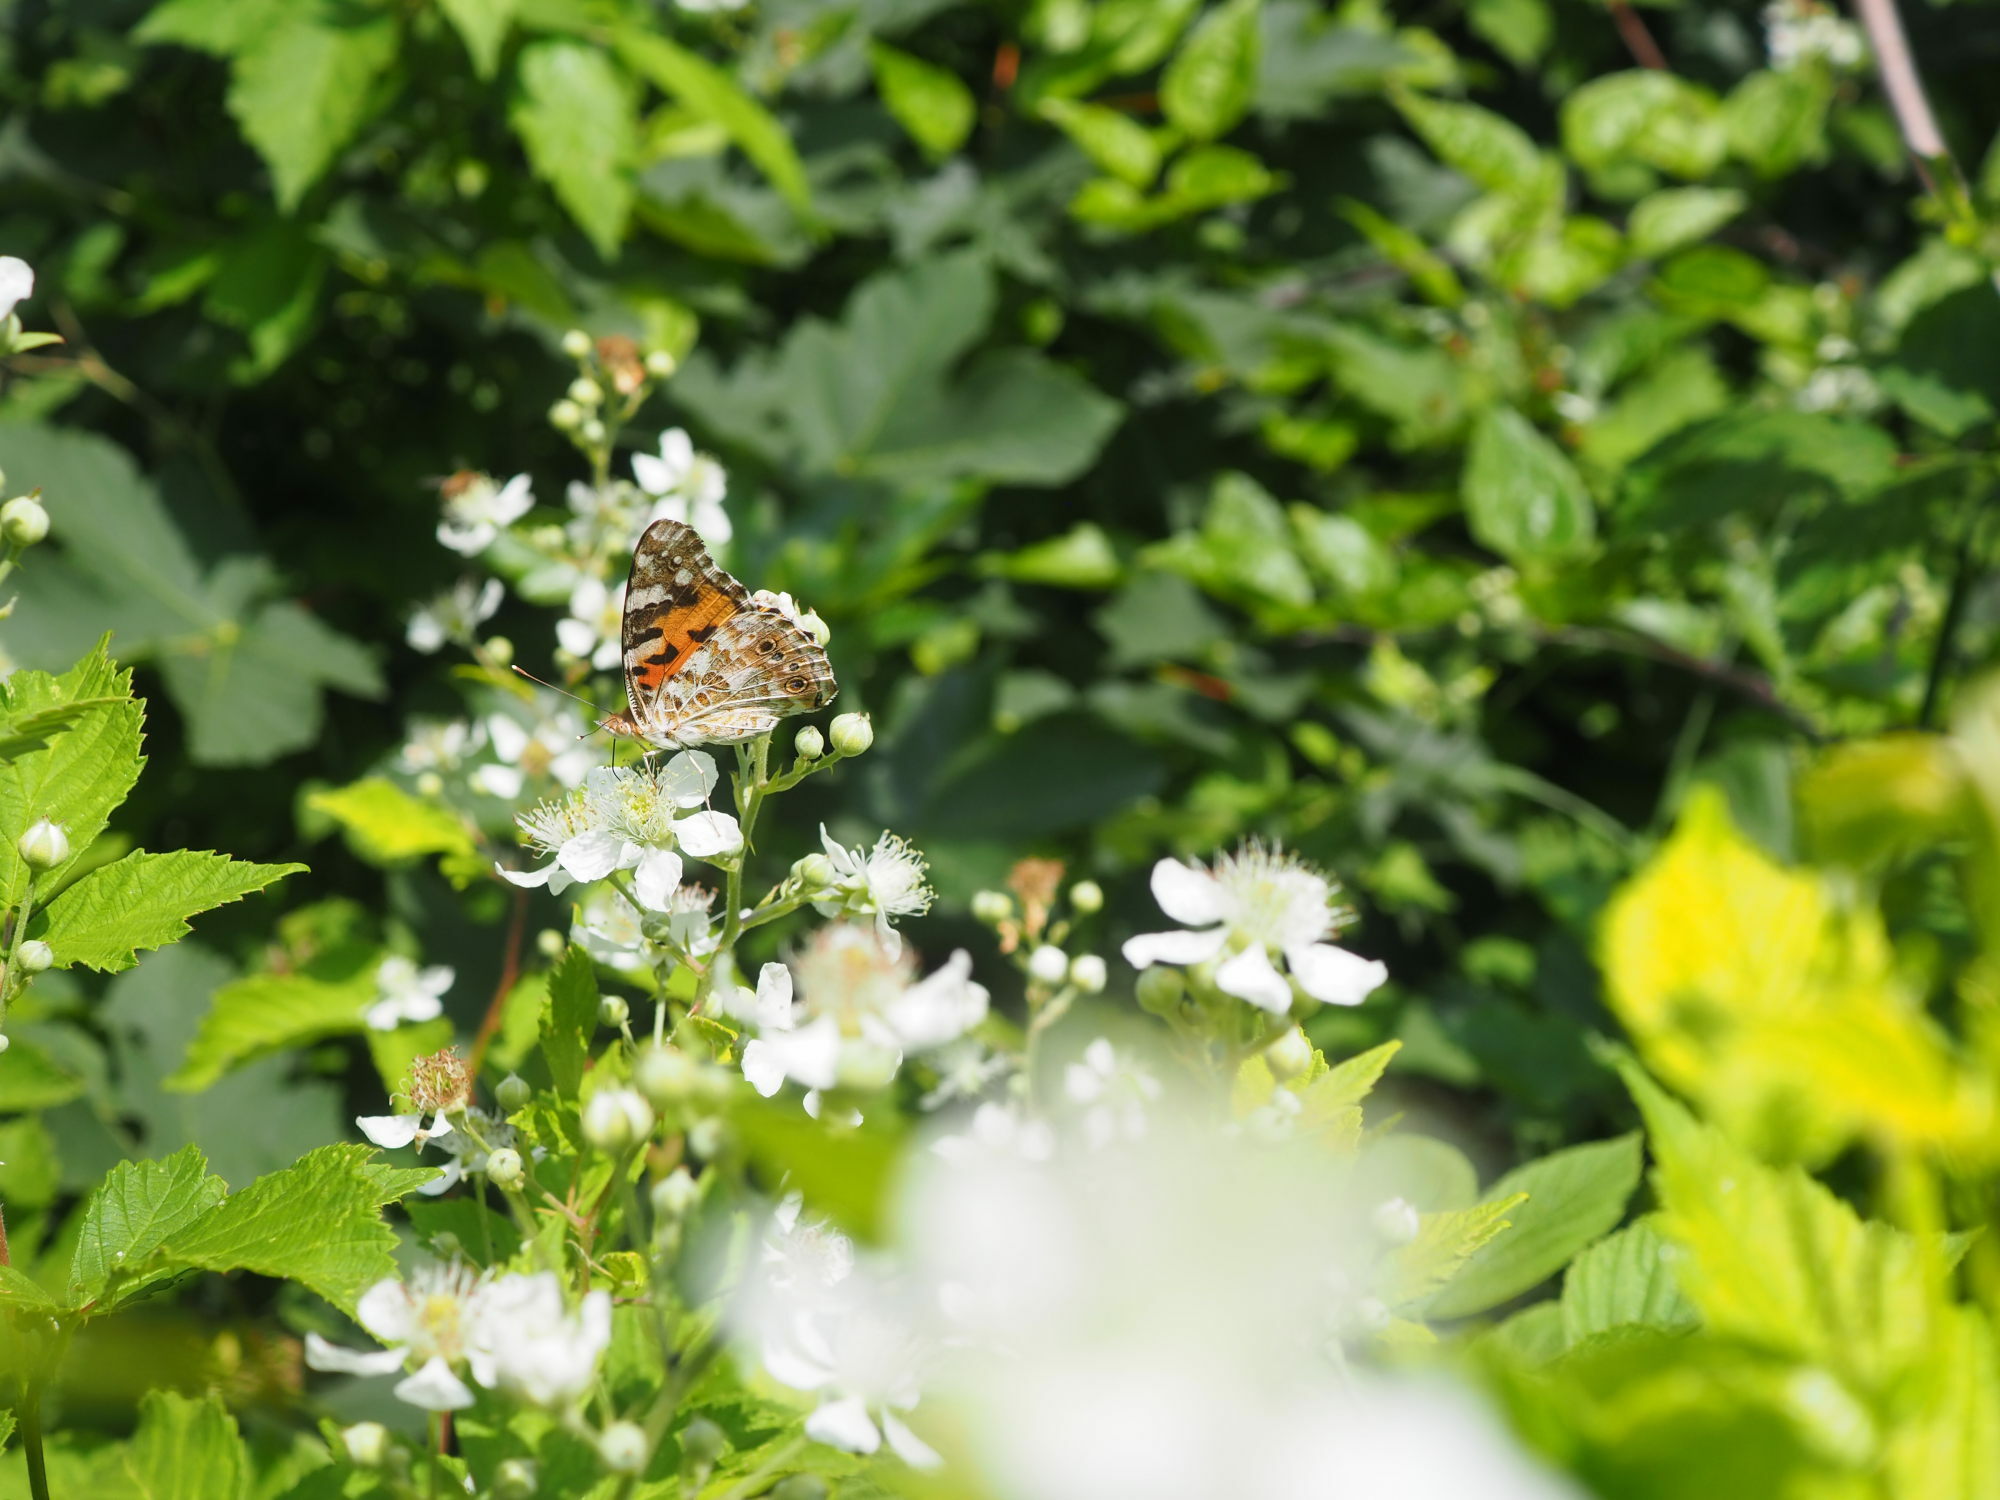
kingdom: Animalia
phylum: Arthropoda
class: Insecta
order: Lepidoptera
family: Nymphalidae
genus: Vanessa
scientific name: Vanessa cardui
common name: Painted lady
